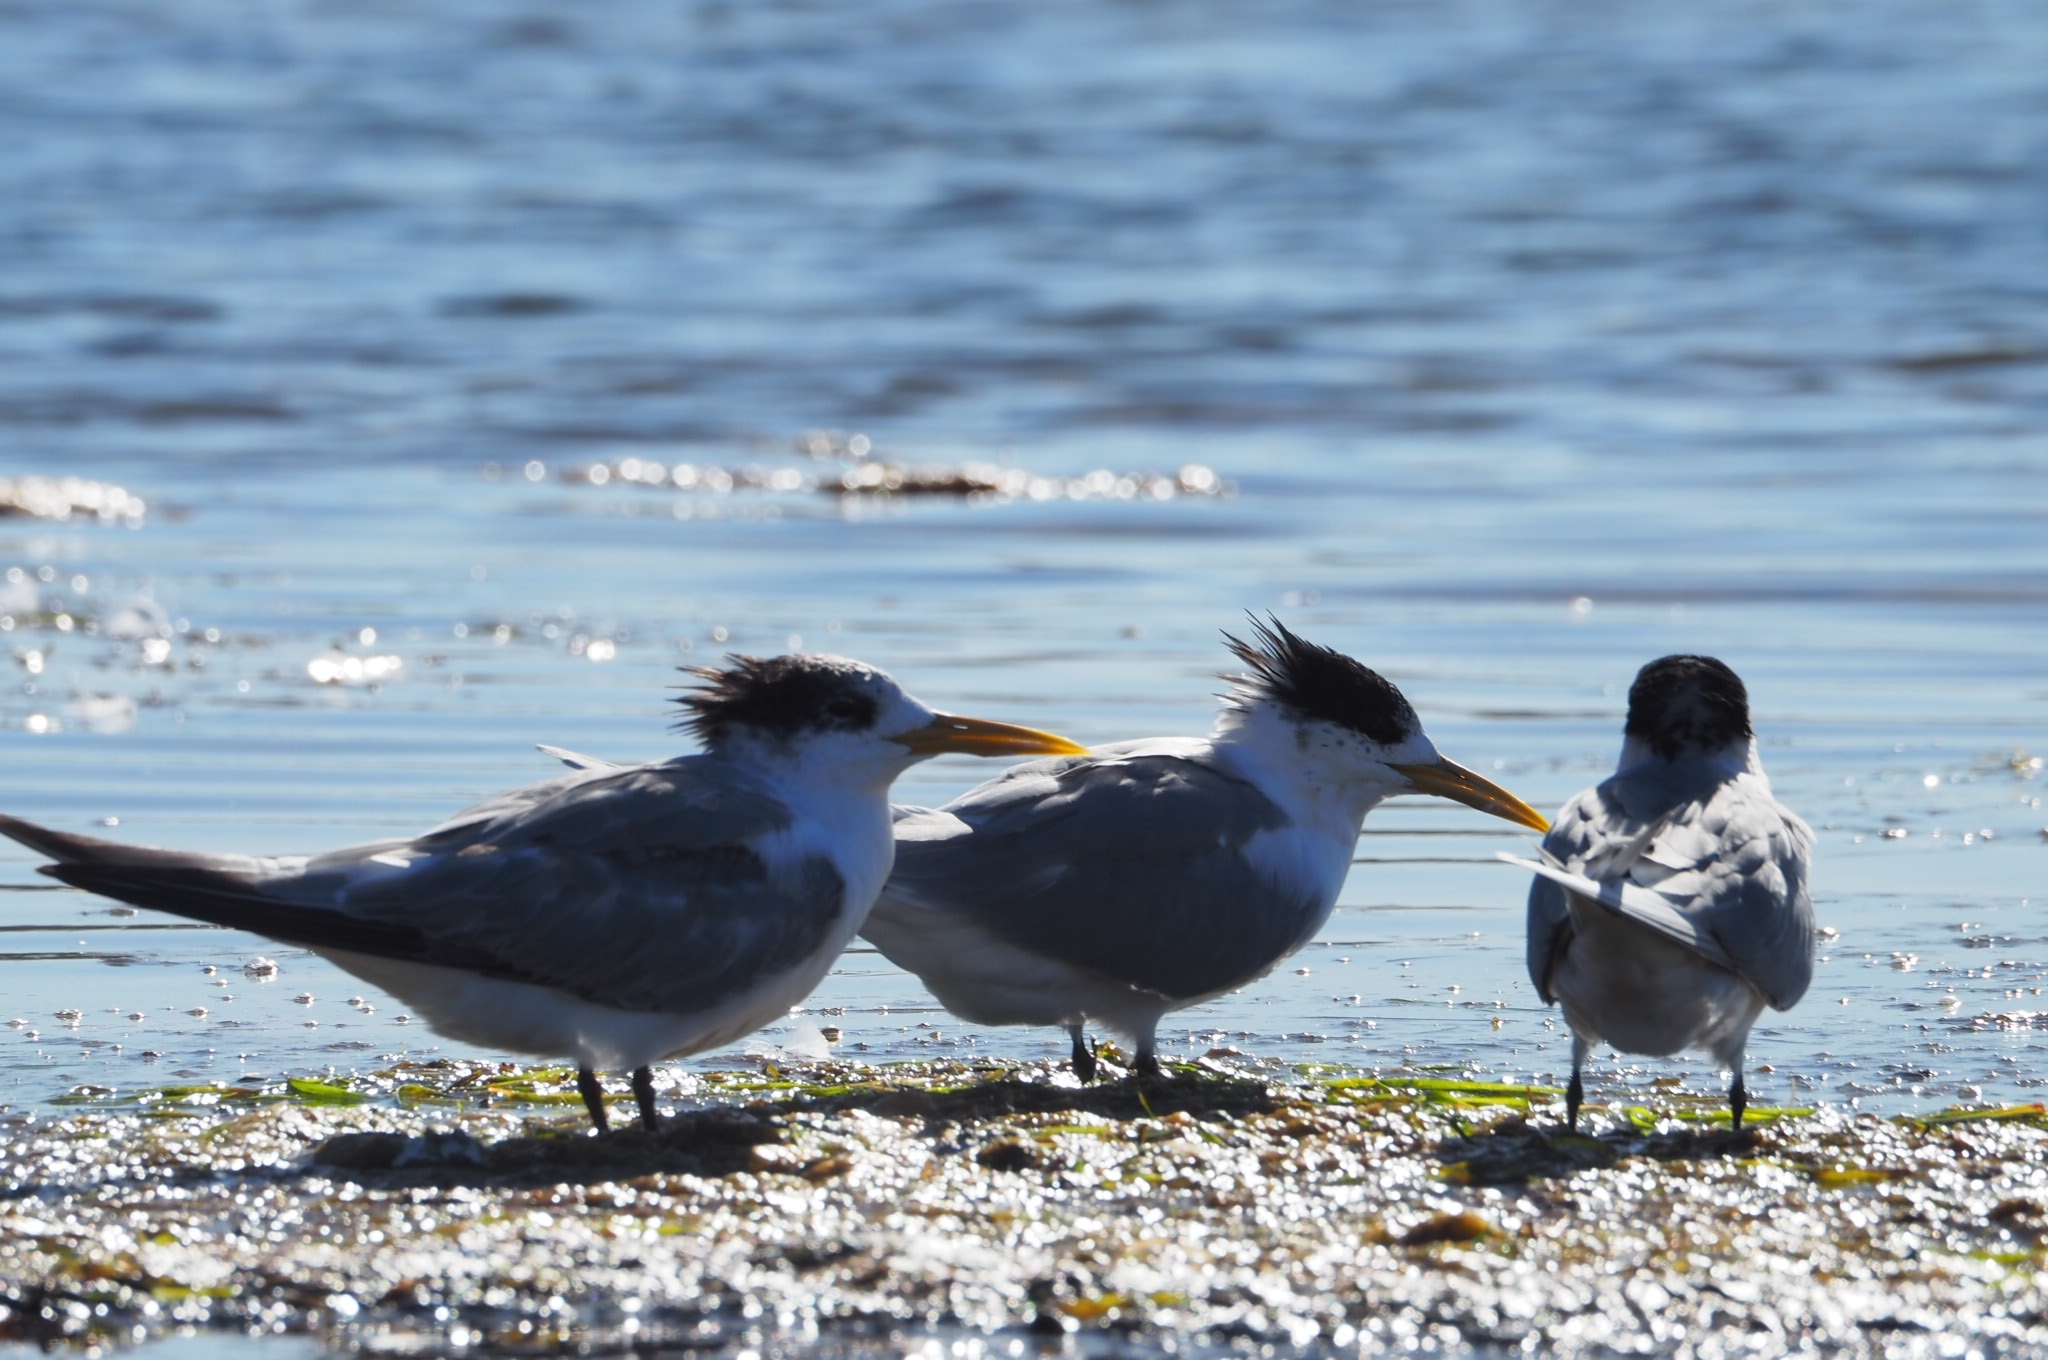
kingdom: Animalia
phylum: Chordata
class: Aves
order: Charadriiformes
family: Laridae
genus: Thalasseus
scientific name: Thalasseus bergii
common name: Greater crested tern
